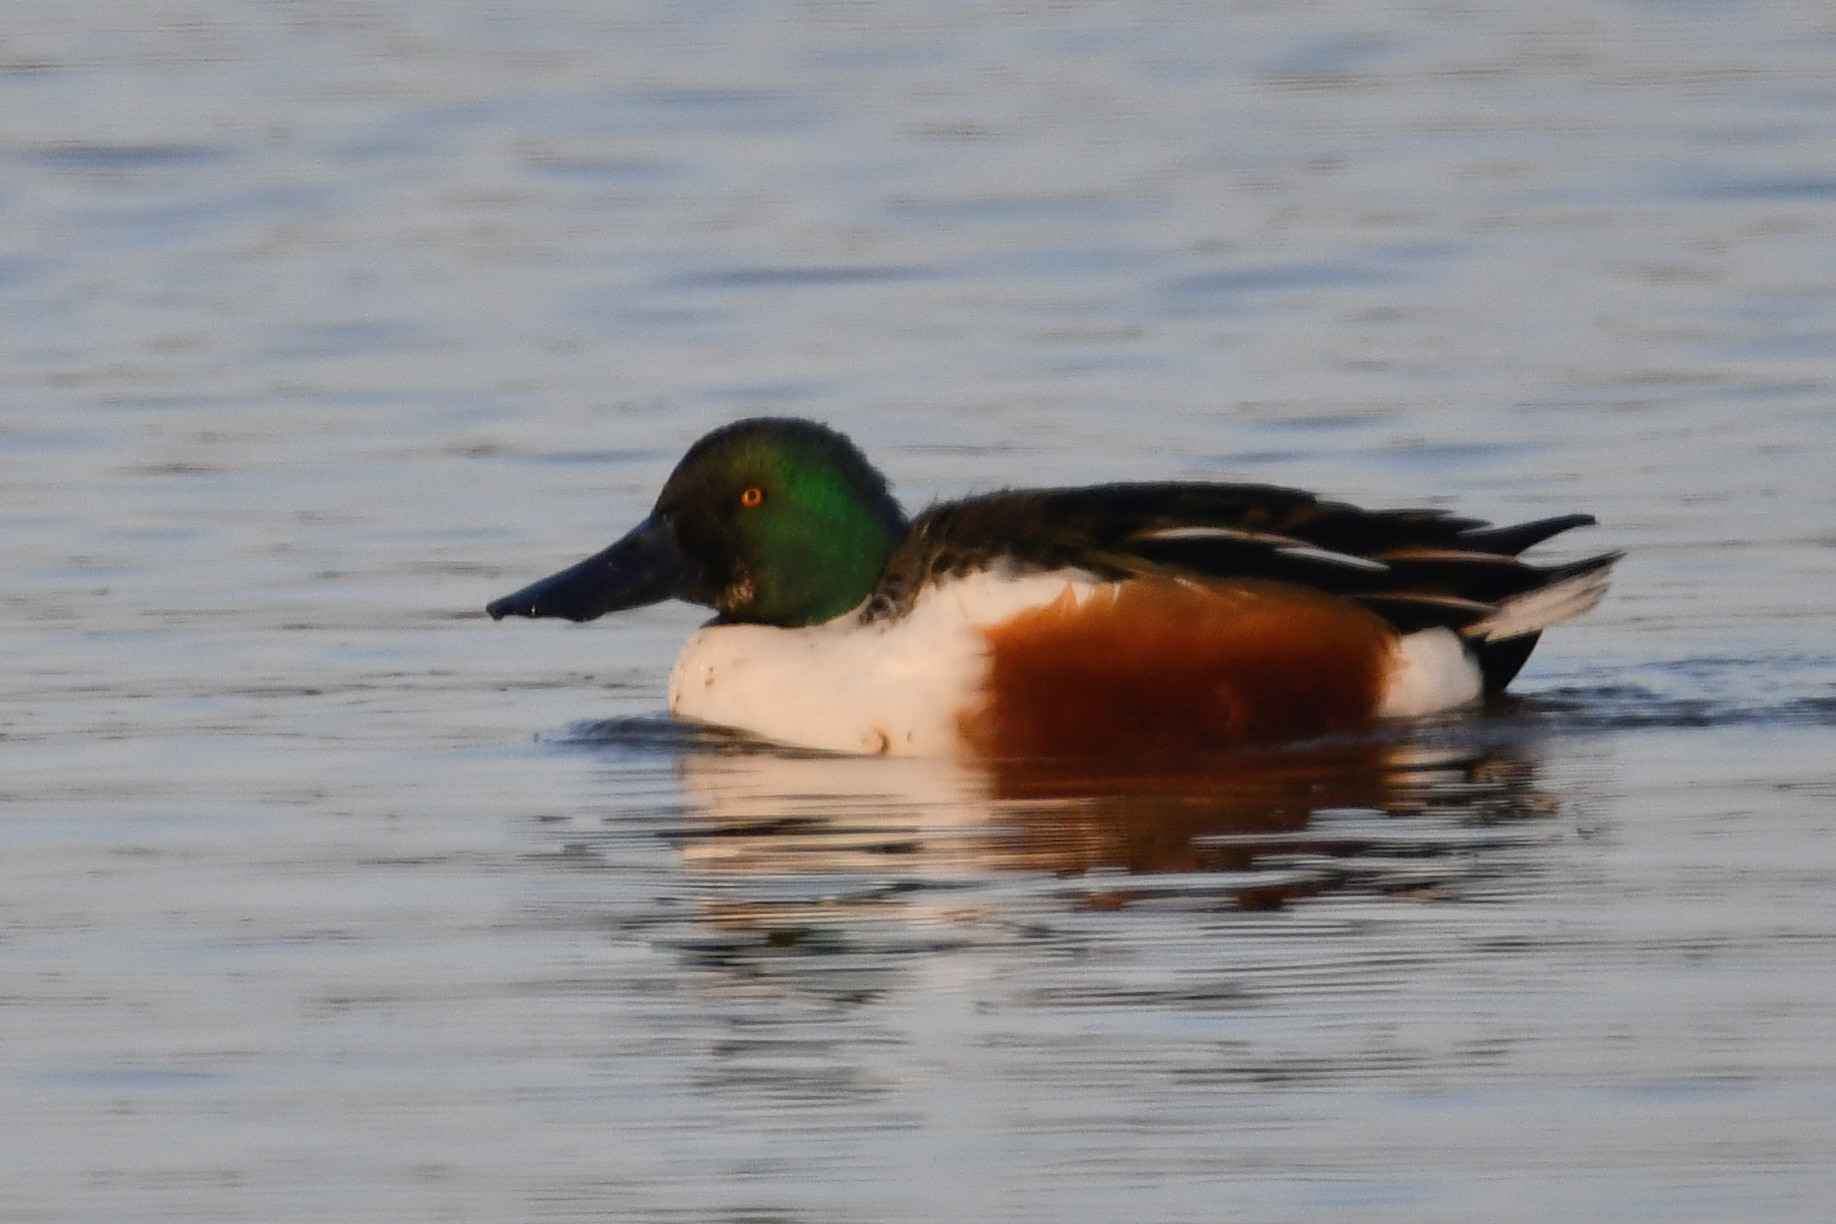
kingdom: Animalia
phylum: Chordata
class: Aves
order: Anseriformes
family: Anatidae
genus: Spatula
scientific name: Spatula clypeata
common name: Northern shoveler
